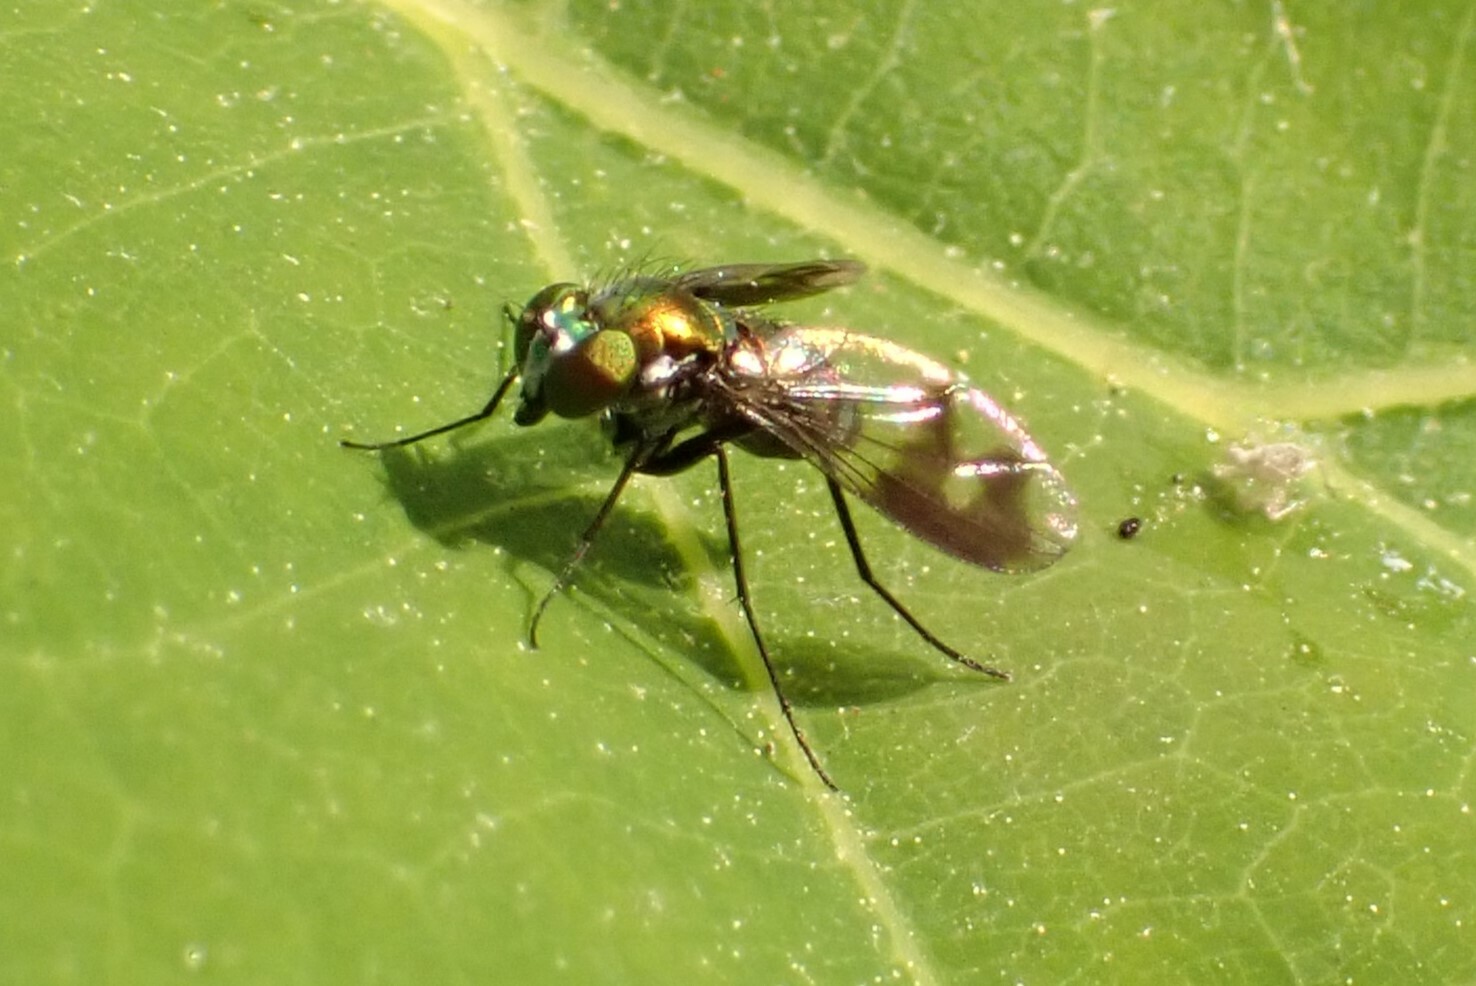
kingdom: Animalia
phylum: Arthropoda
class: Insecta
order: Diptera
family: Dolichopodidae
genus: Condylostylus
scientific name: Condylostylus patibulatus
